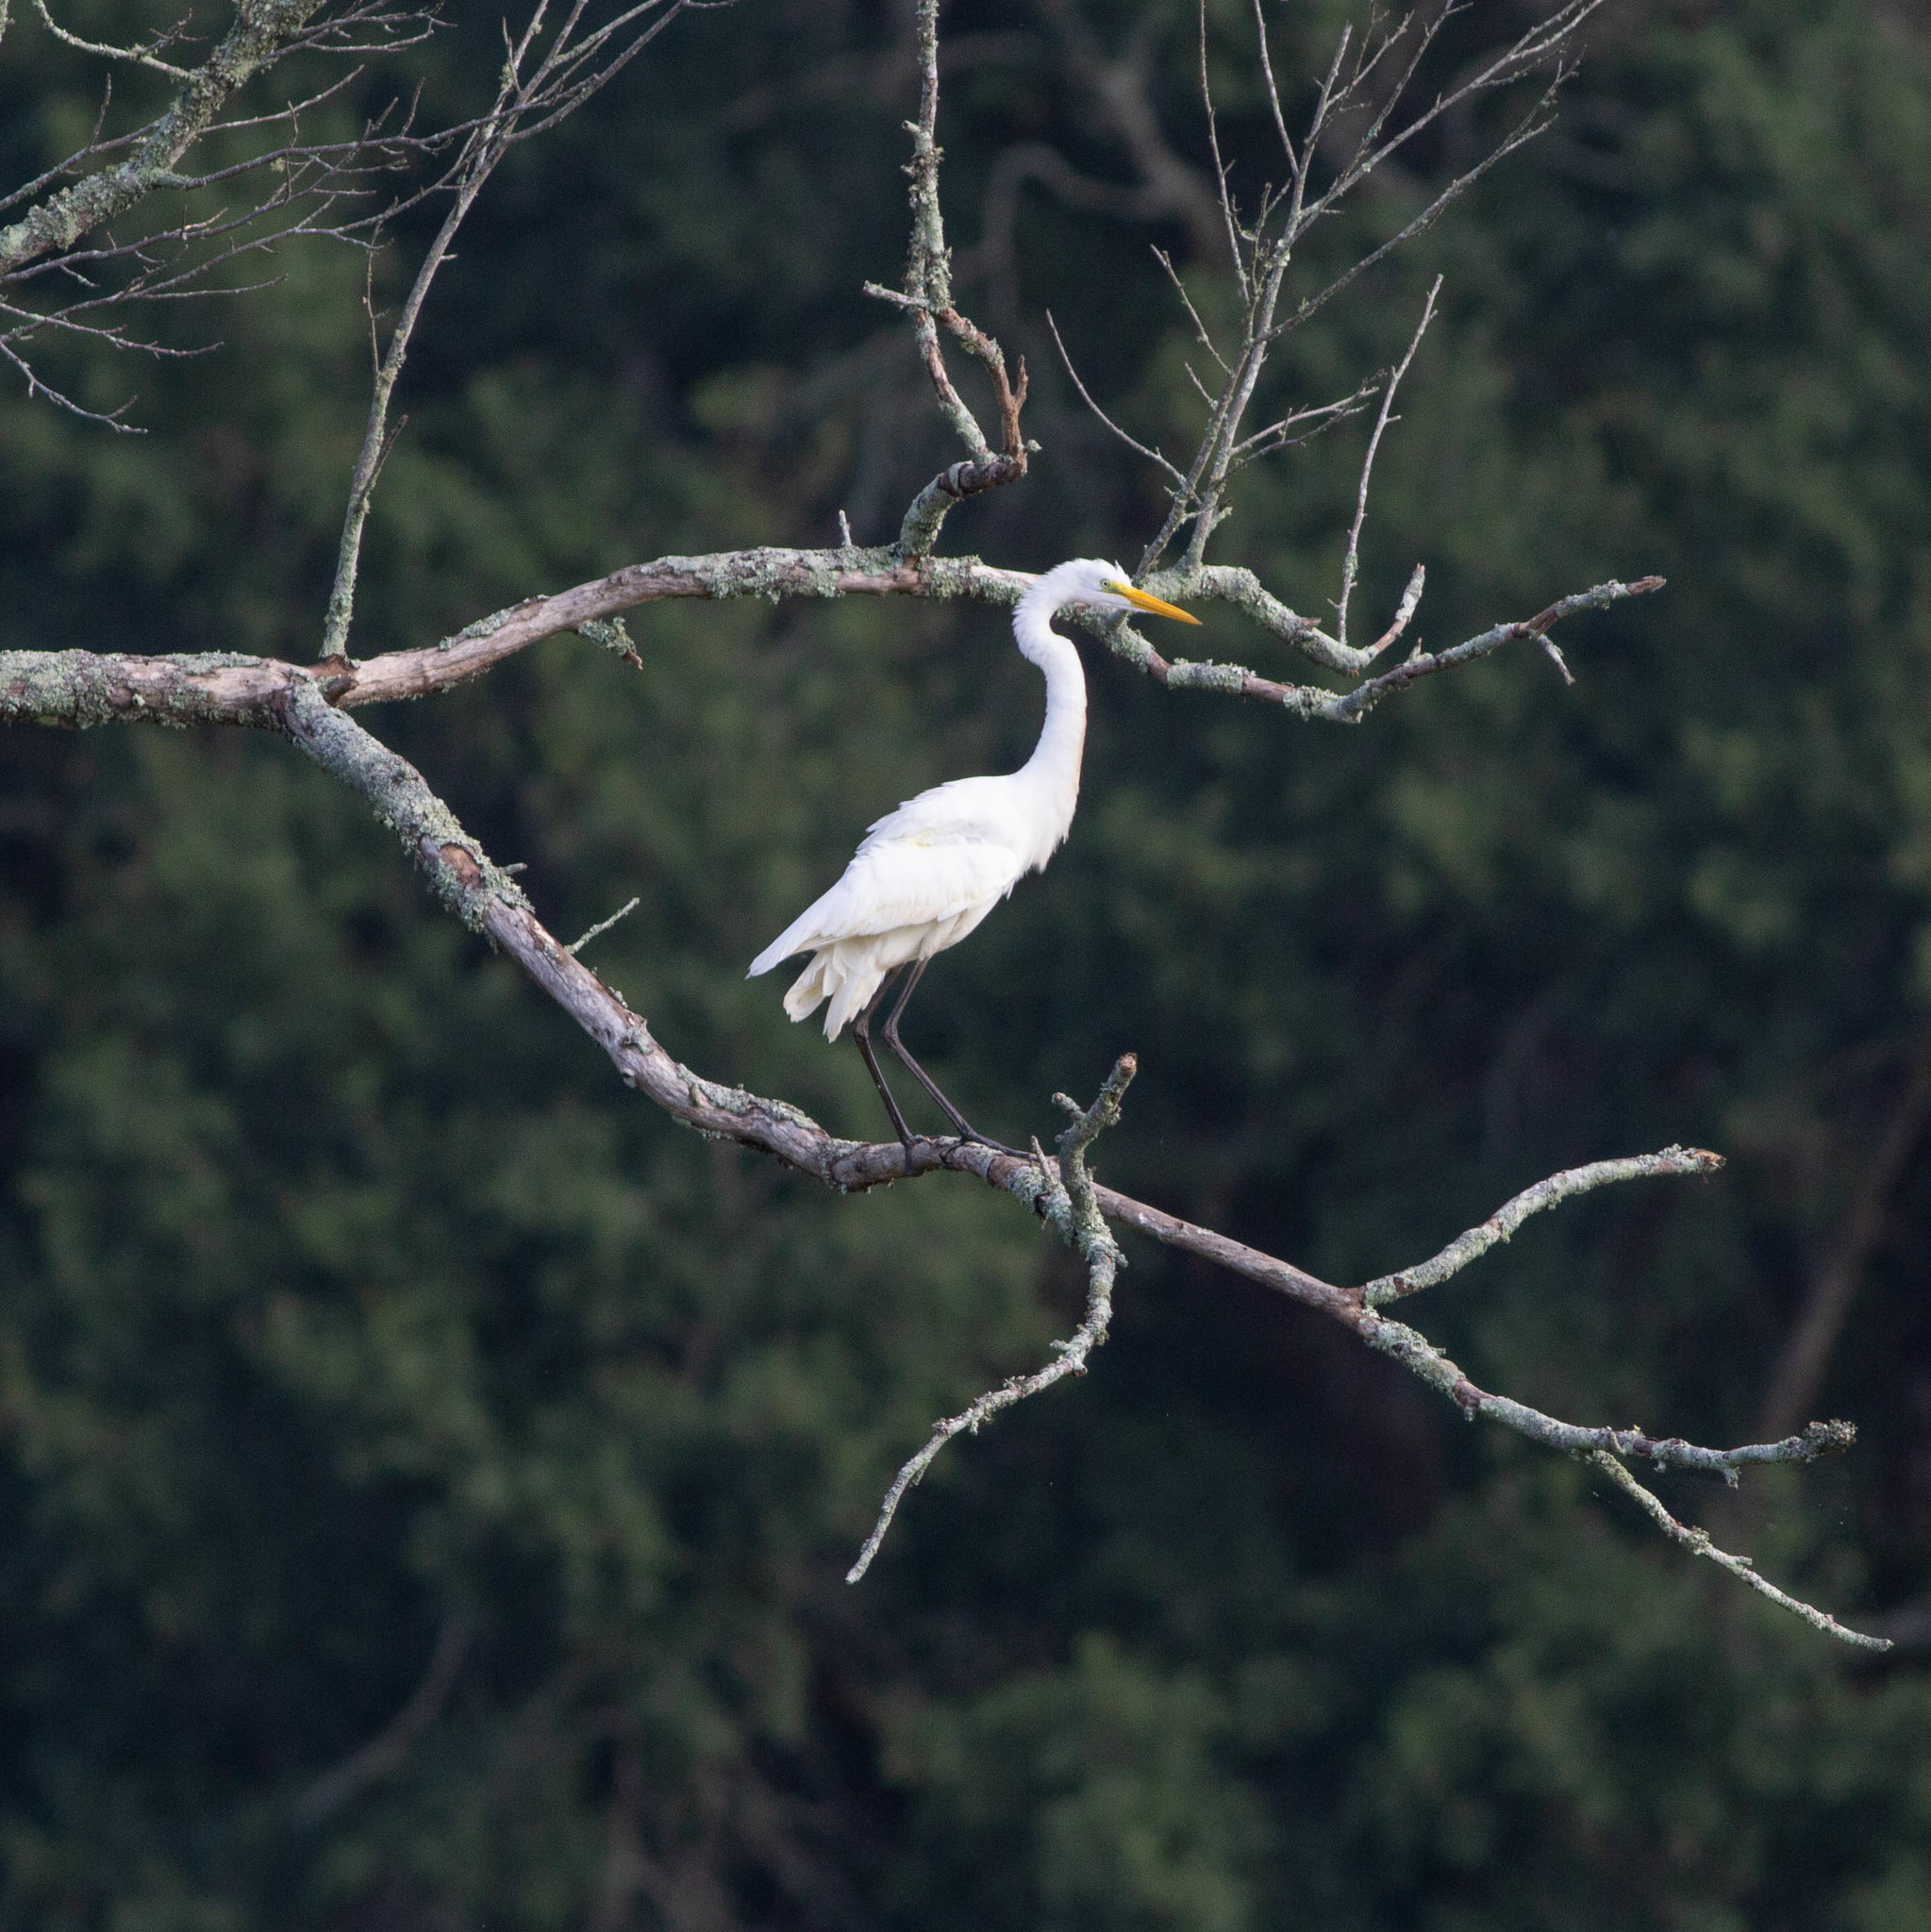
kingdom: Animalia
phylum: Chordata
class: Aves
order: Pelecaniformes
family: Ardeidae
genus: Ardea
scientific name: Ardea alba
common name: Great egret
